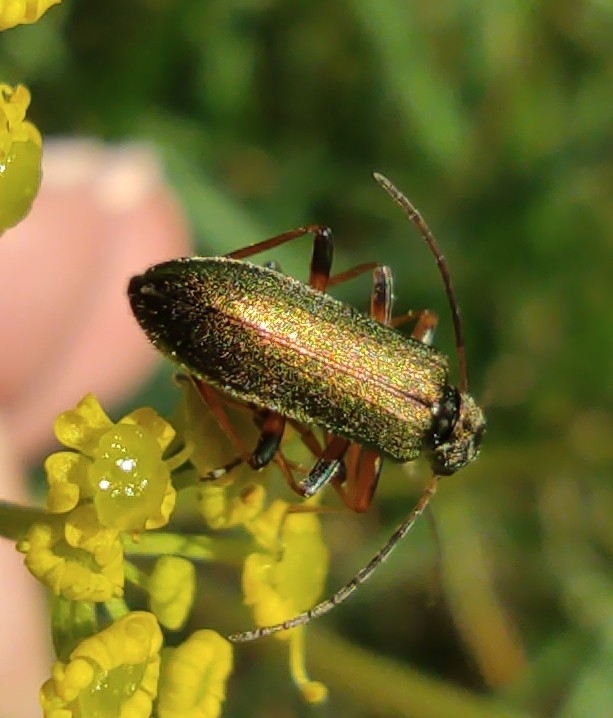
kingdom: Animalia
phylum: Arthropoda
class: Insecta
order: Coleoptera
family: Oedemeridae
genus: Chrysanthia
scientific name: Chrysanthia geniculata
